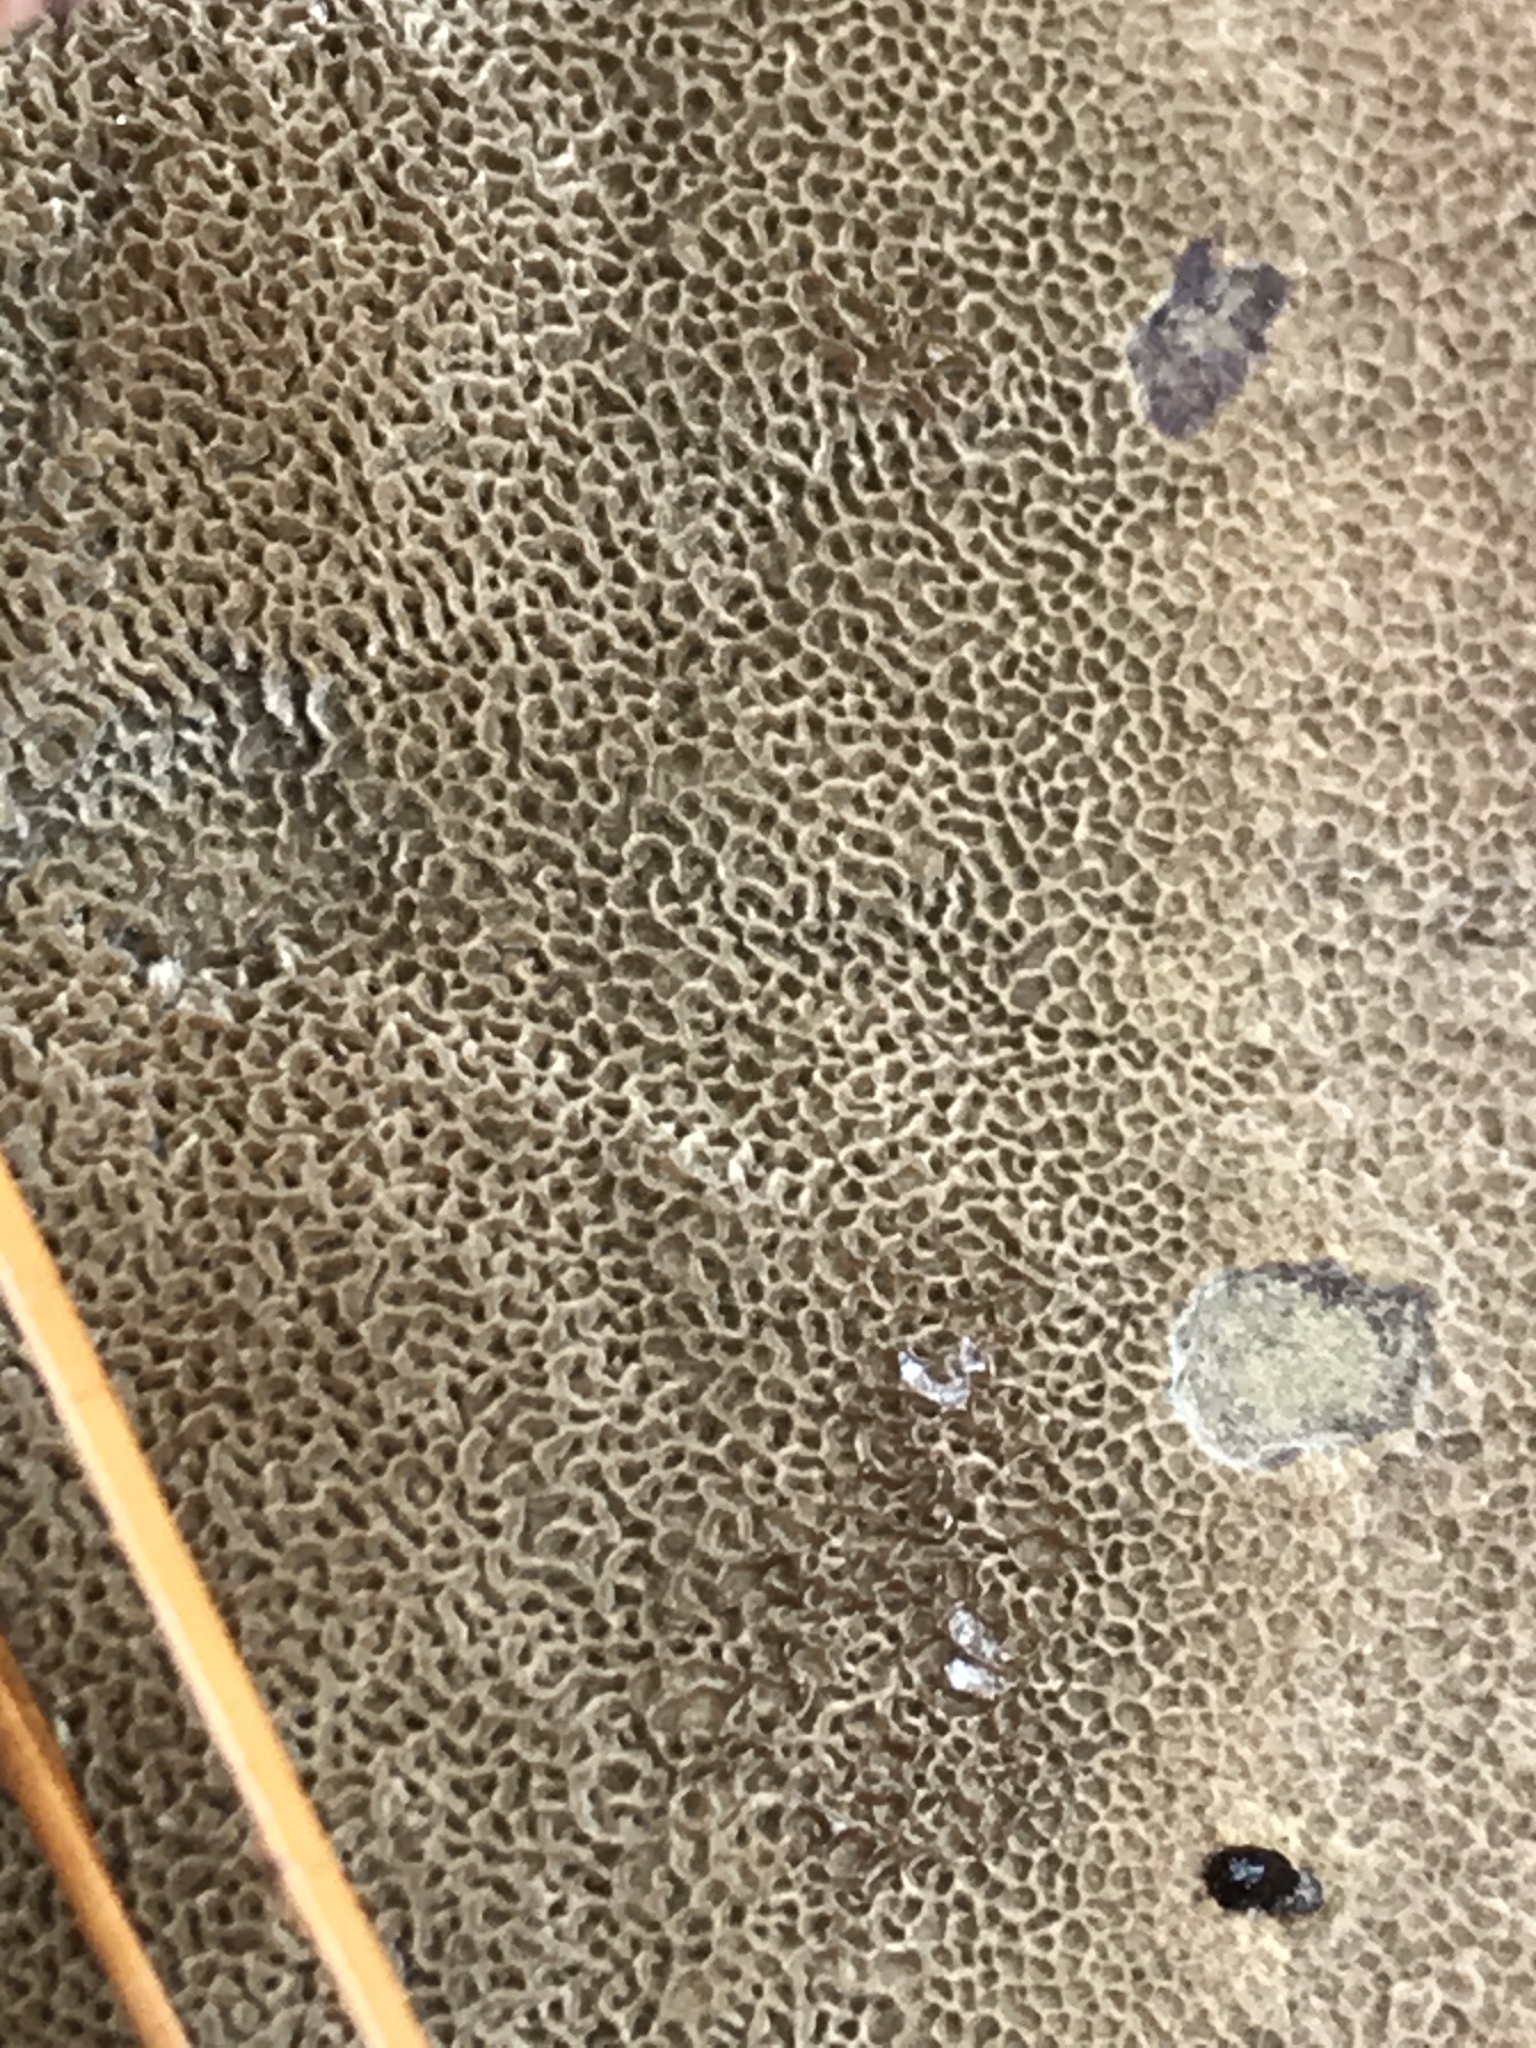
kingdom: Fungi
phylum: Basidiomycota
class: Agaricomycetes
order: Polyporales
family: Laetiporaceae
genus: Phaeolus
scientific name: Phaeolus schweinitzii
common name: Dyer's mazegill
